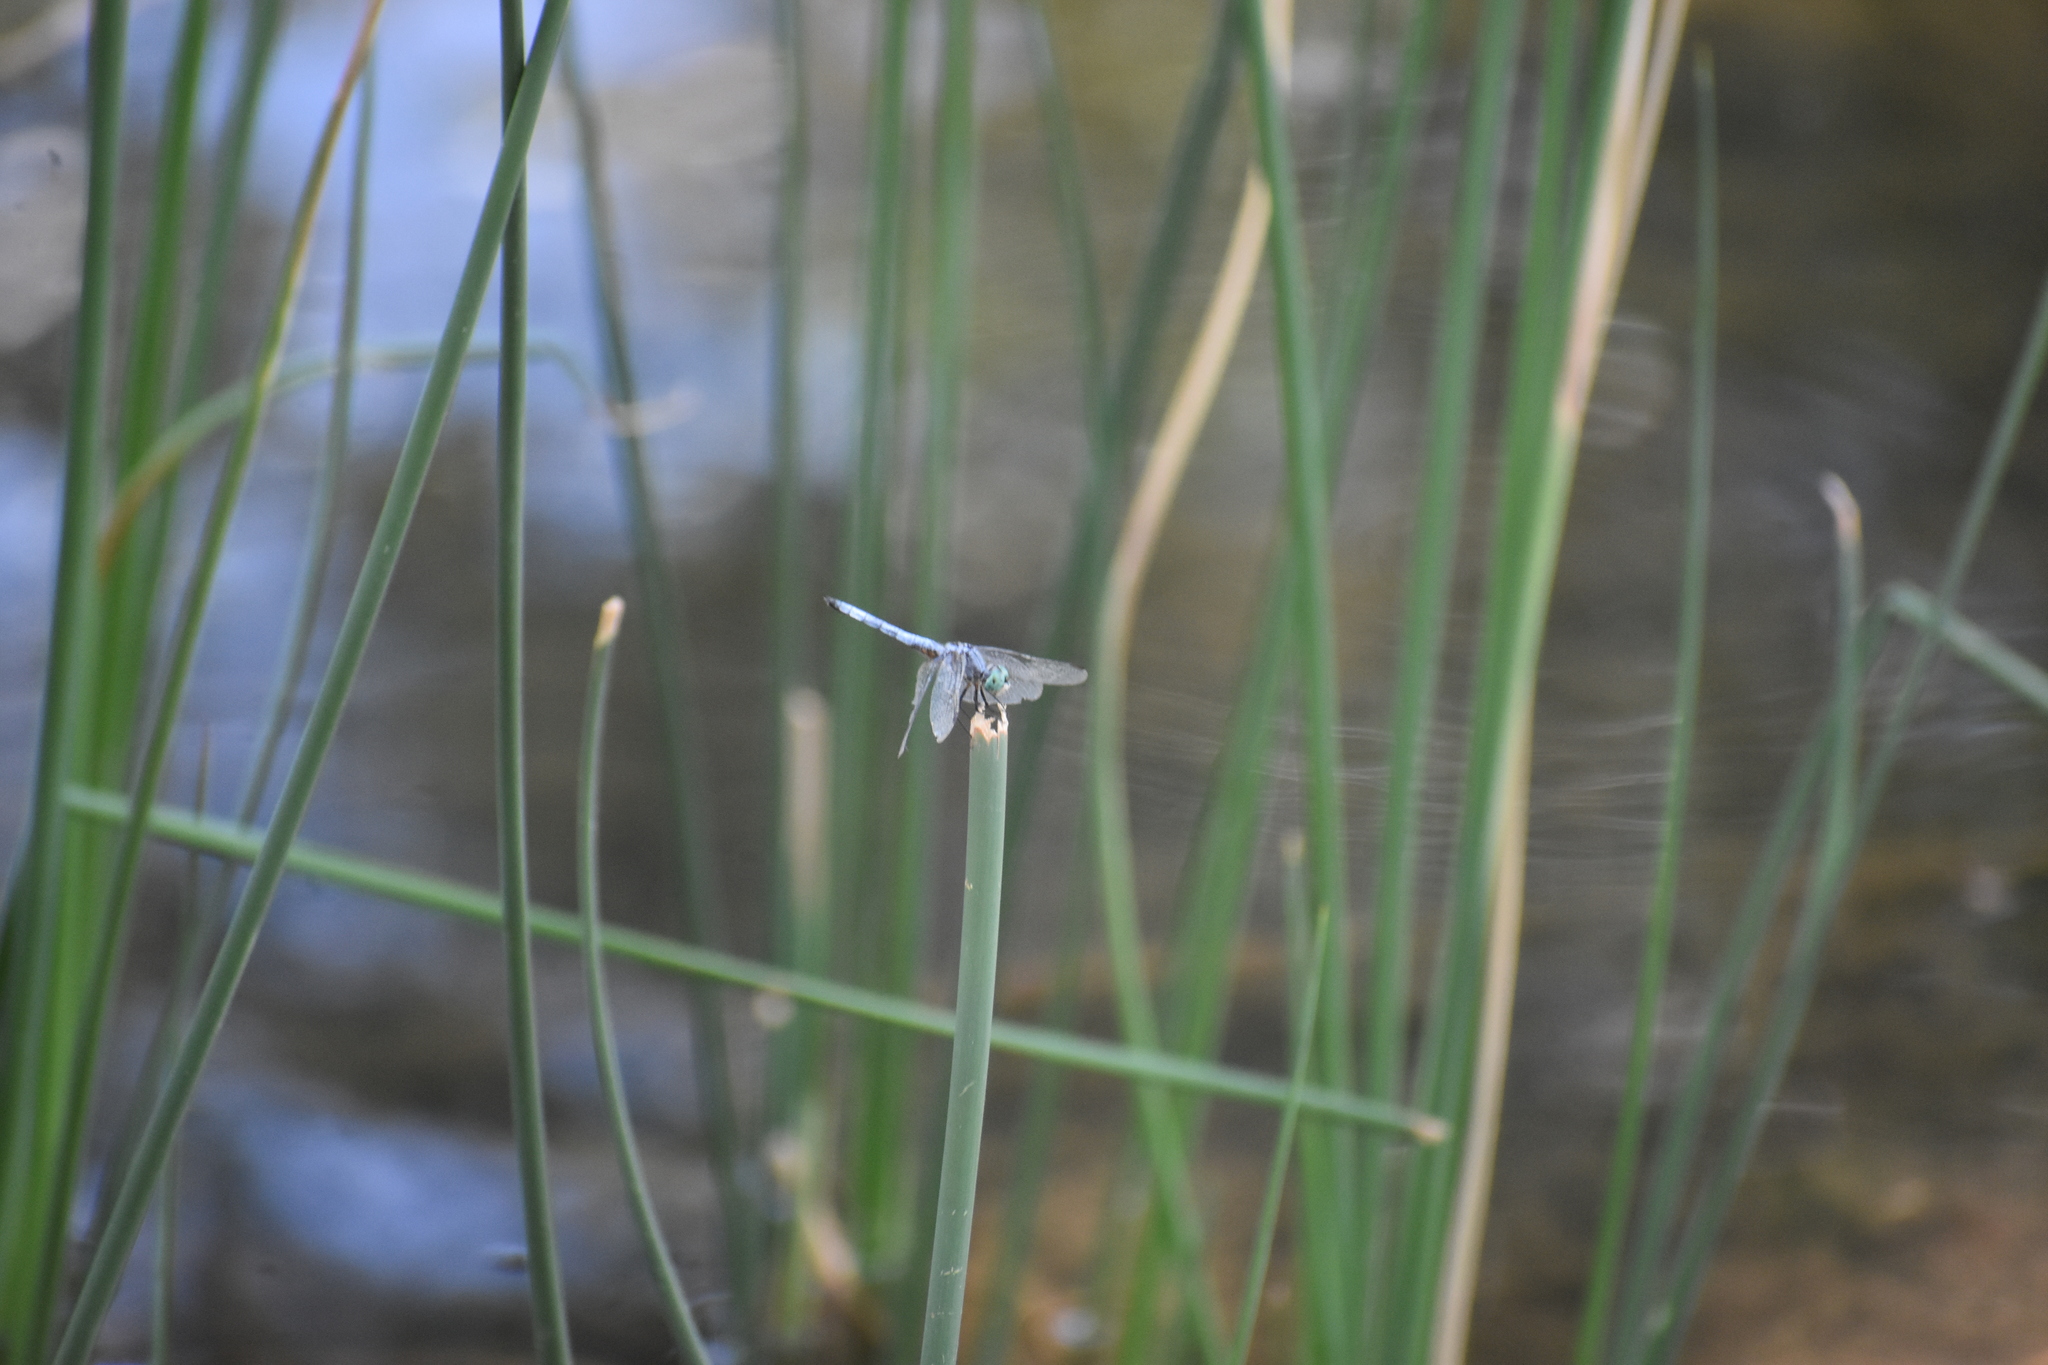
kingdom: Animalia
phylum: Arthropoda
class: Insecta
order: Odonata
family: Libellulidae
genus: Pachydiplax
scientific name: Pachydiplax longipennis
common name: Blue dasher
